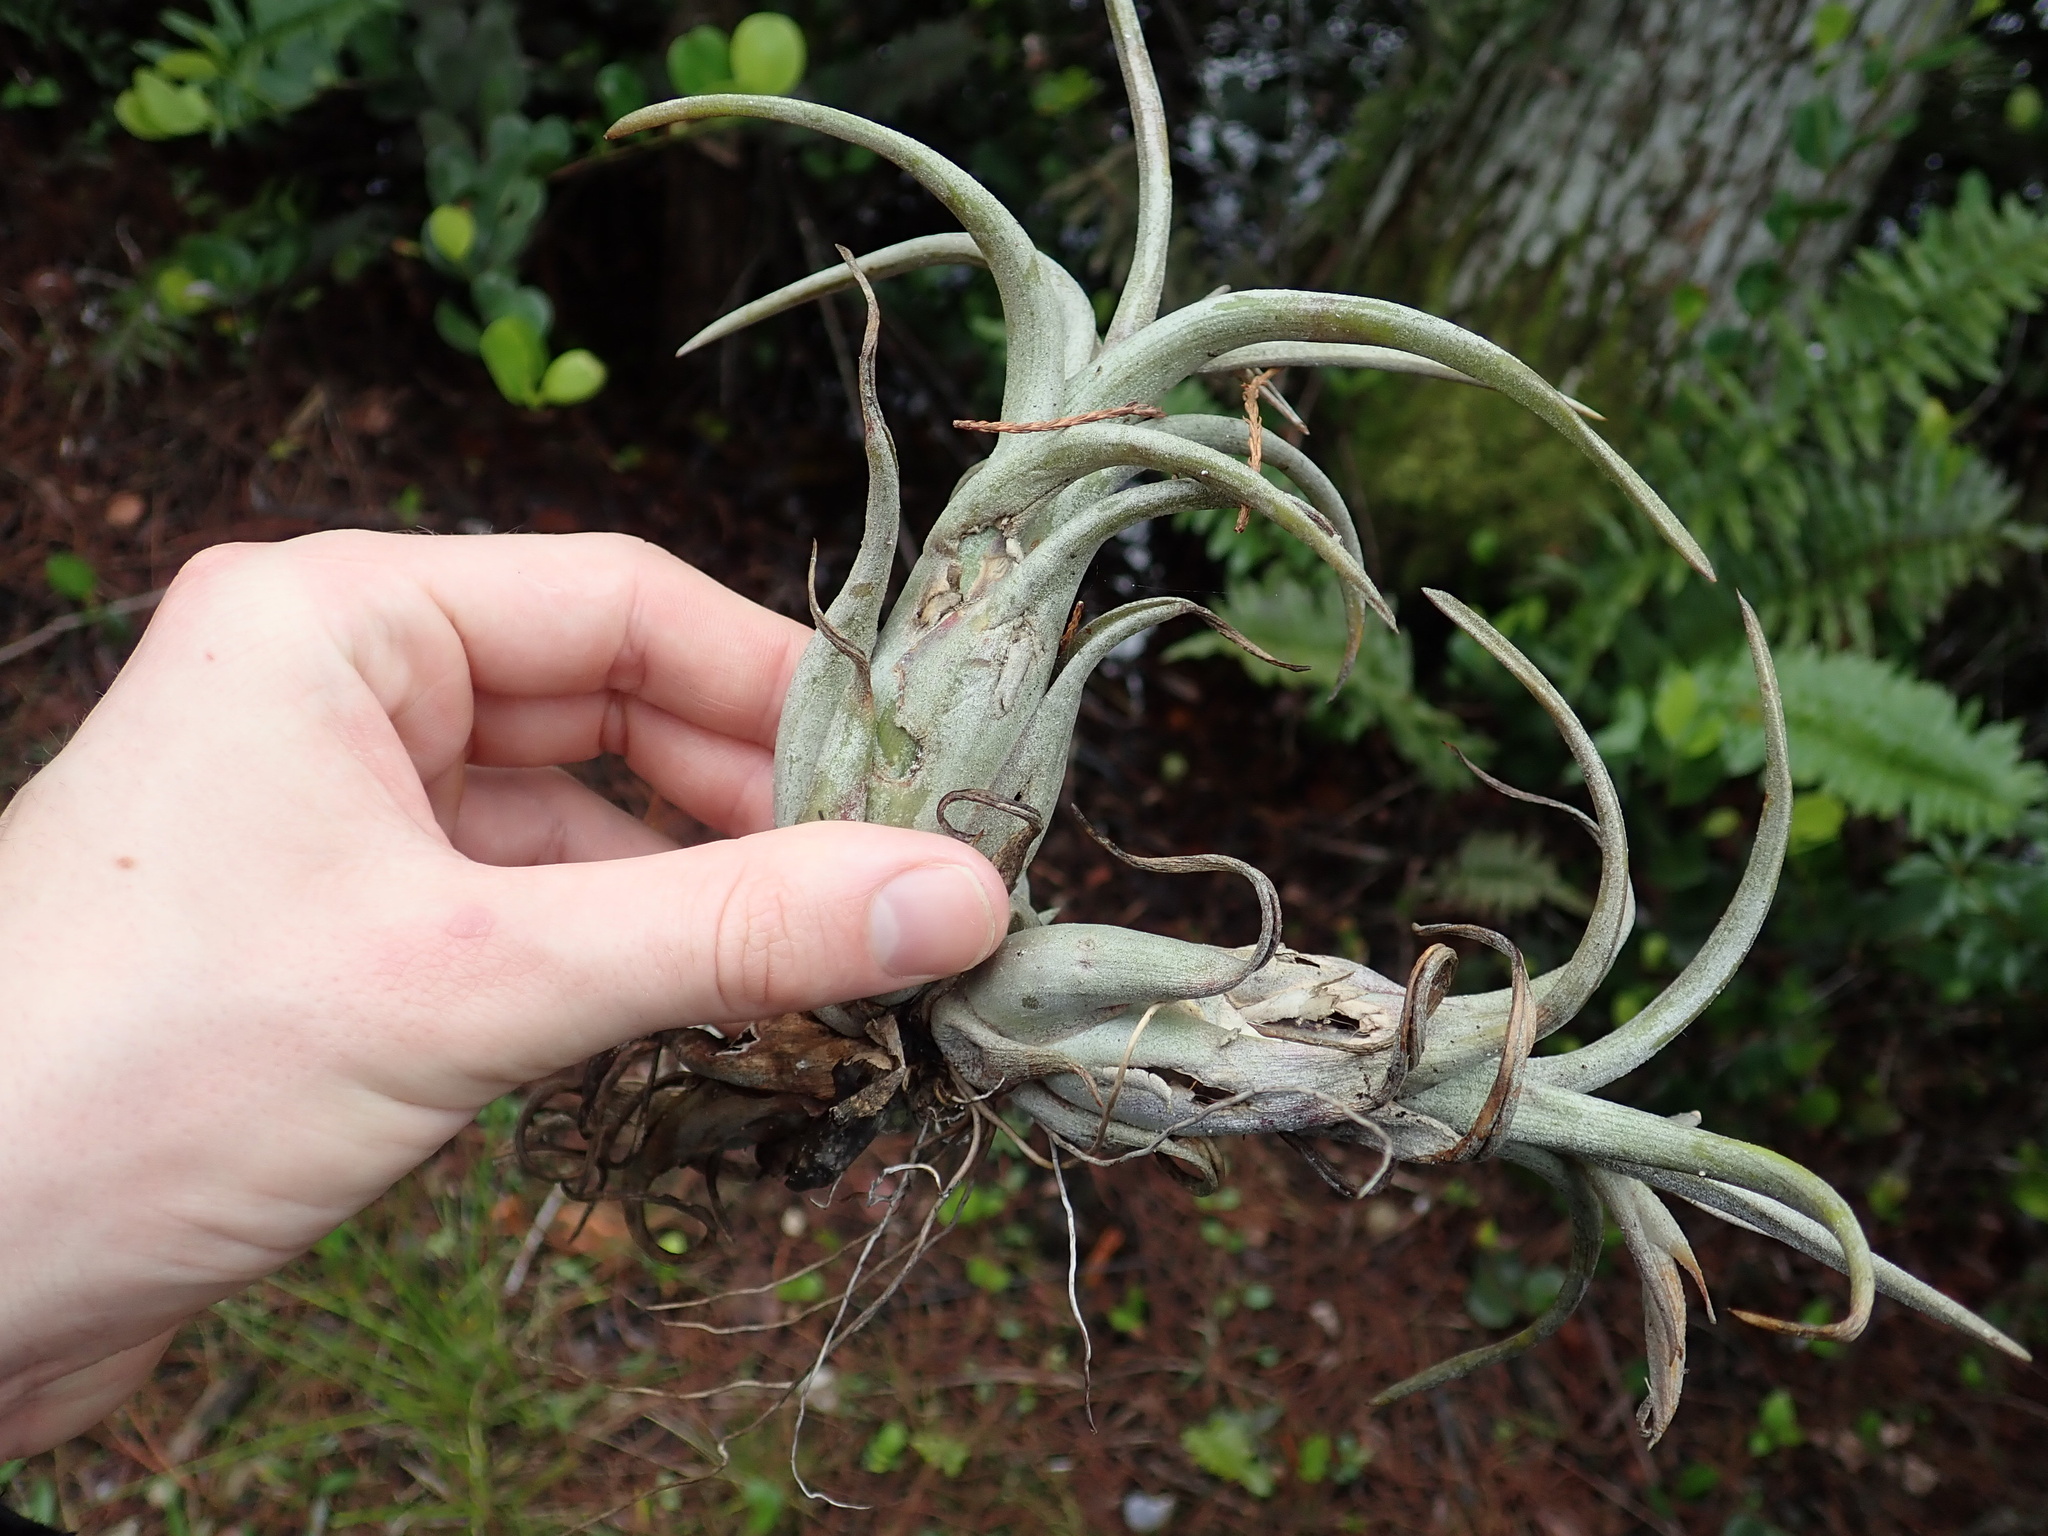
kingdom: Plantae
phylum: Tracheophyta
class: Liliopsida
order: Poales
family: Bromeliaceae
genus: Tillandsia
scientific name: Tillandsia paucifolia
